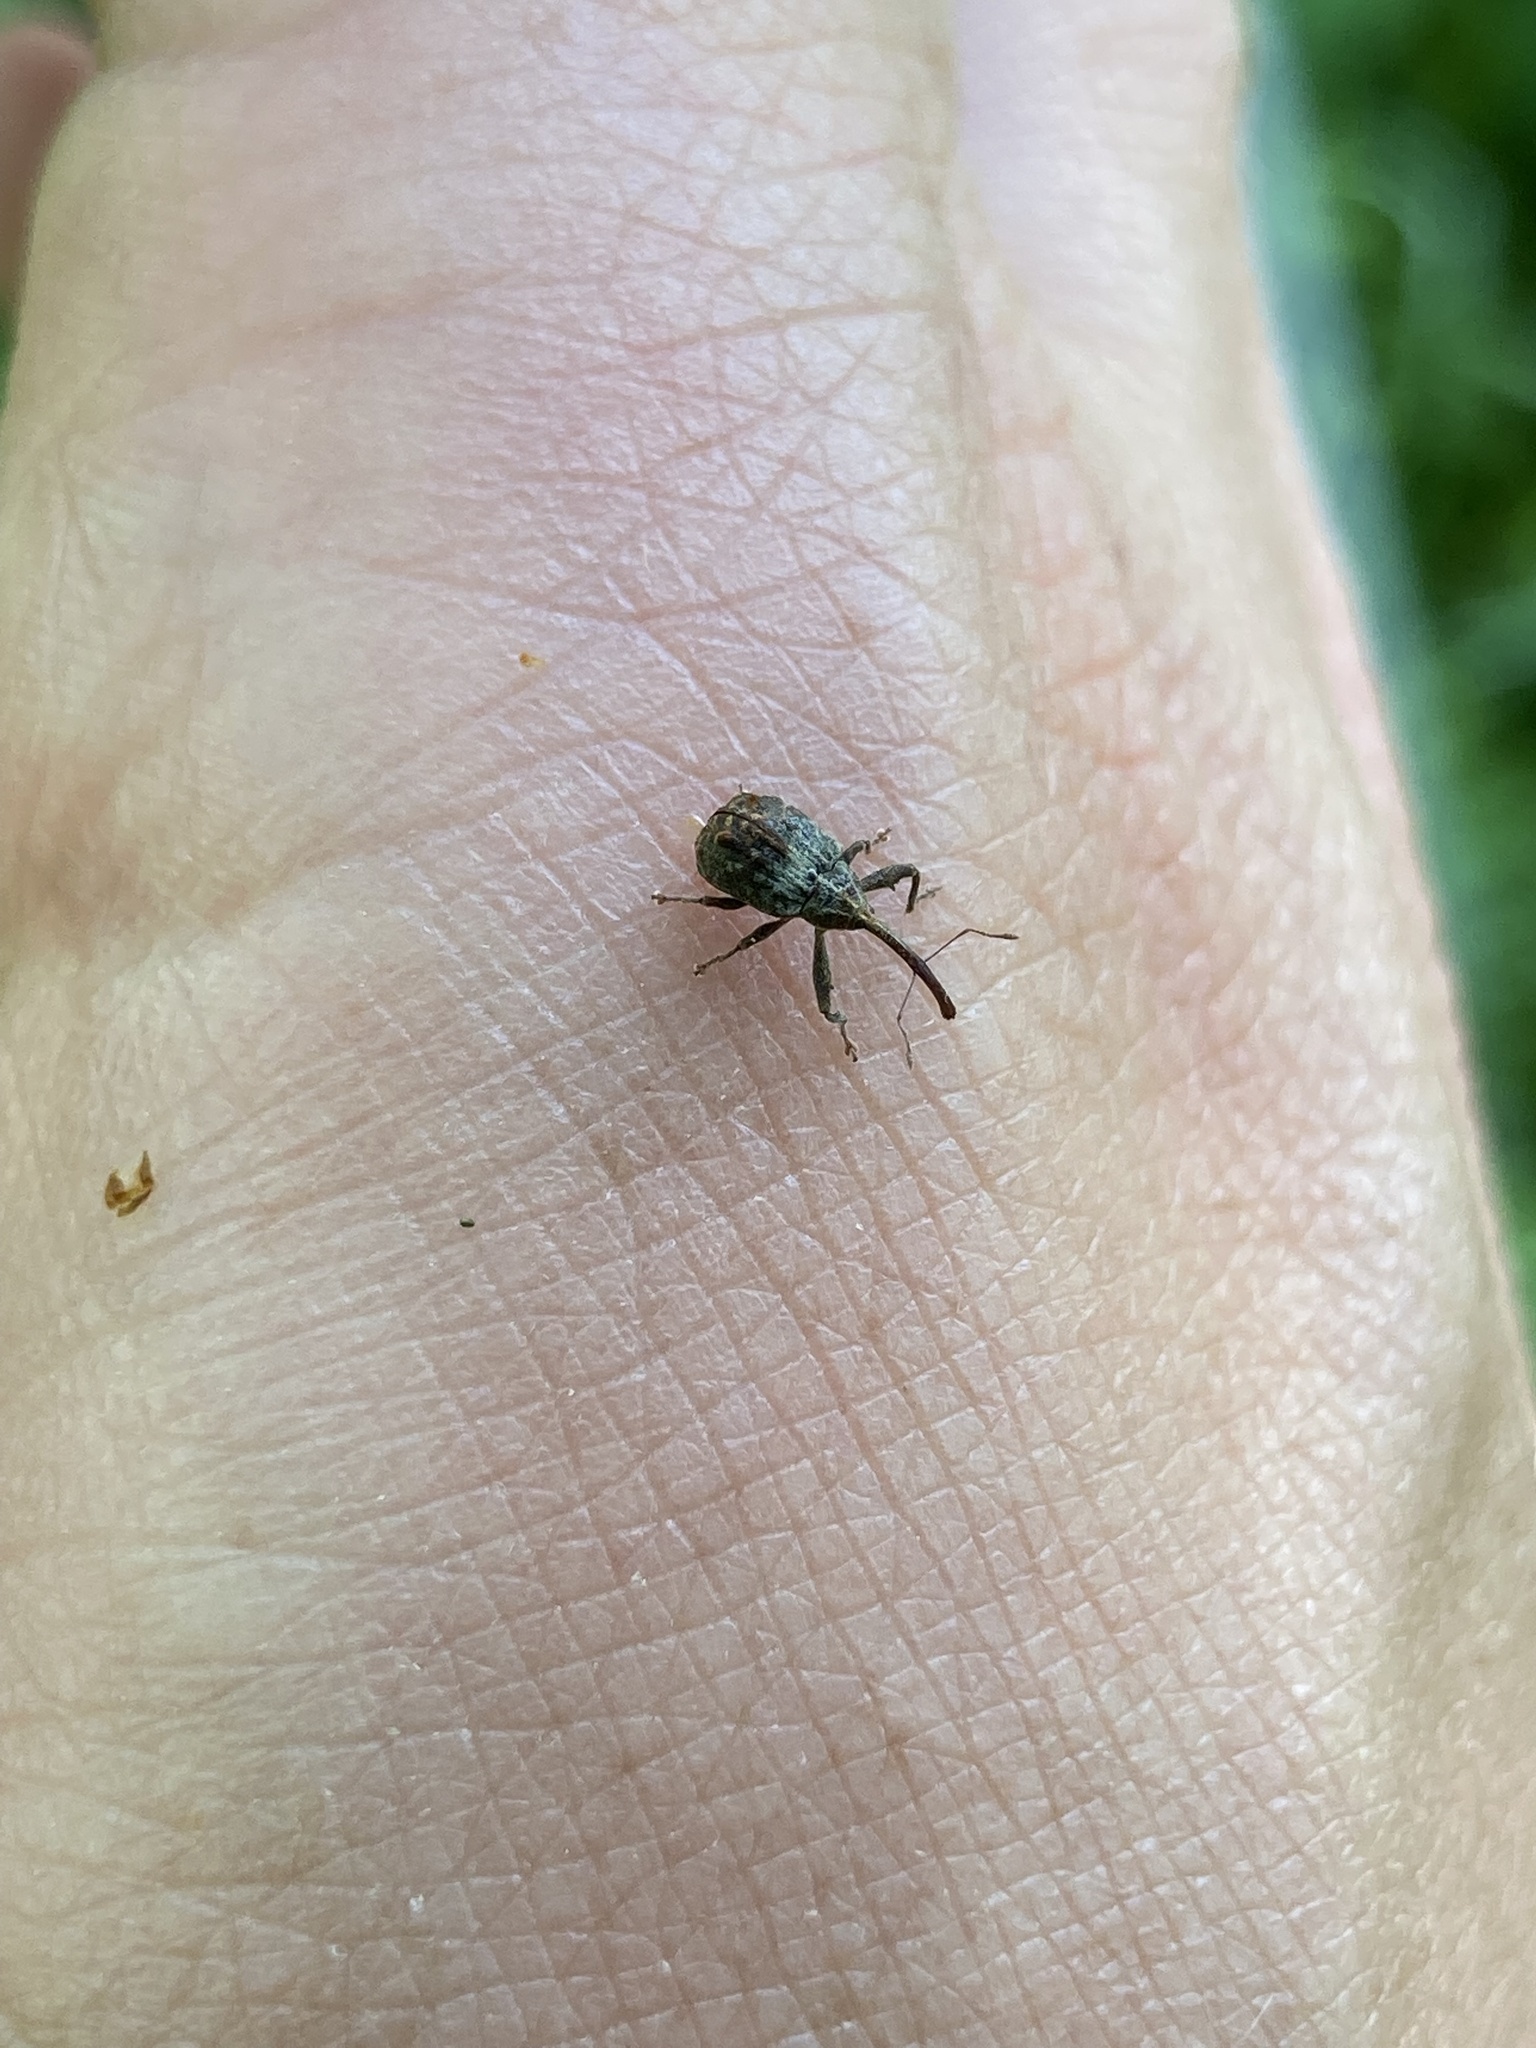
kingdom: Animalia
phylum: Arthropoda
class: Insecta
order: Coleoptera
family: Curculionidae
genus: Anthonomus
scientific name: Anthonomus quadrigibbus
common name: Apple curculio
